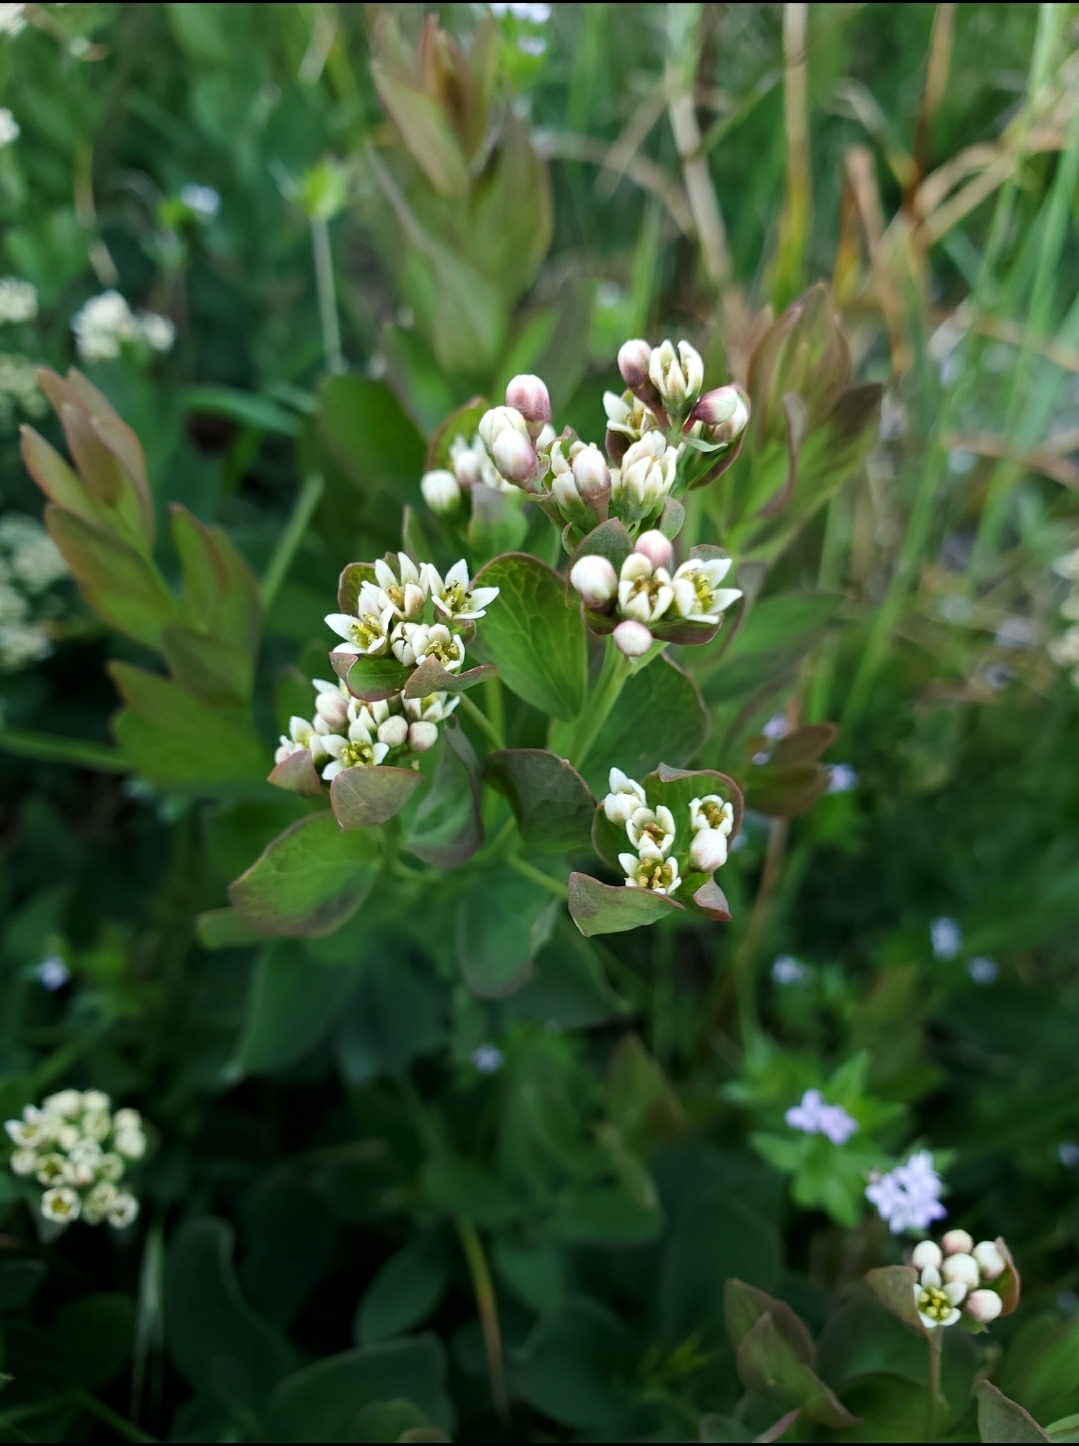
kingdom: Plantae
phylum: Tracheophyta
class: Magnoliopsida
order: Santalales
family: Comandraceae
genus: Comandra
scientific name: Comandra umbellata
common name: Bastard toadflax
